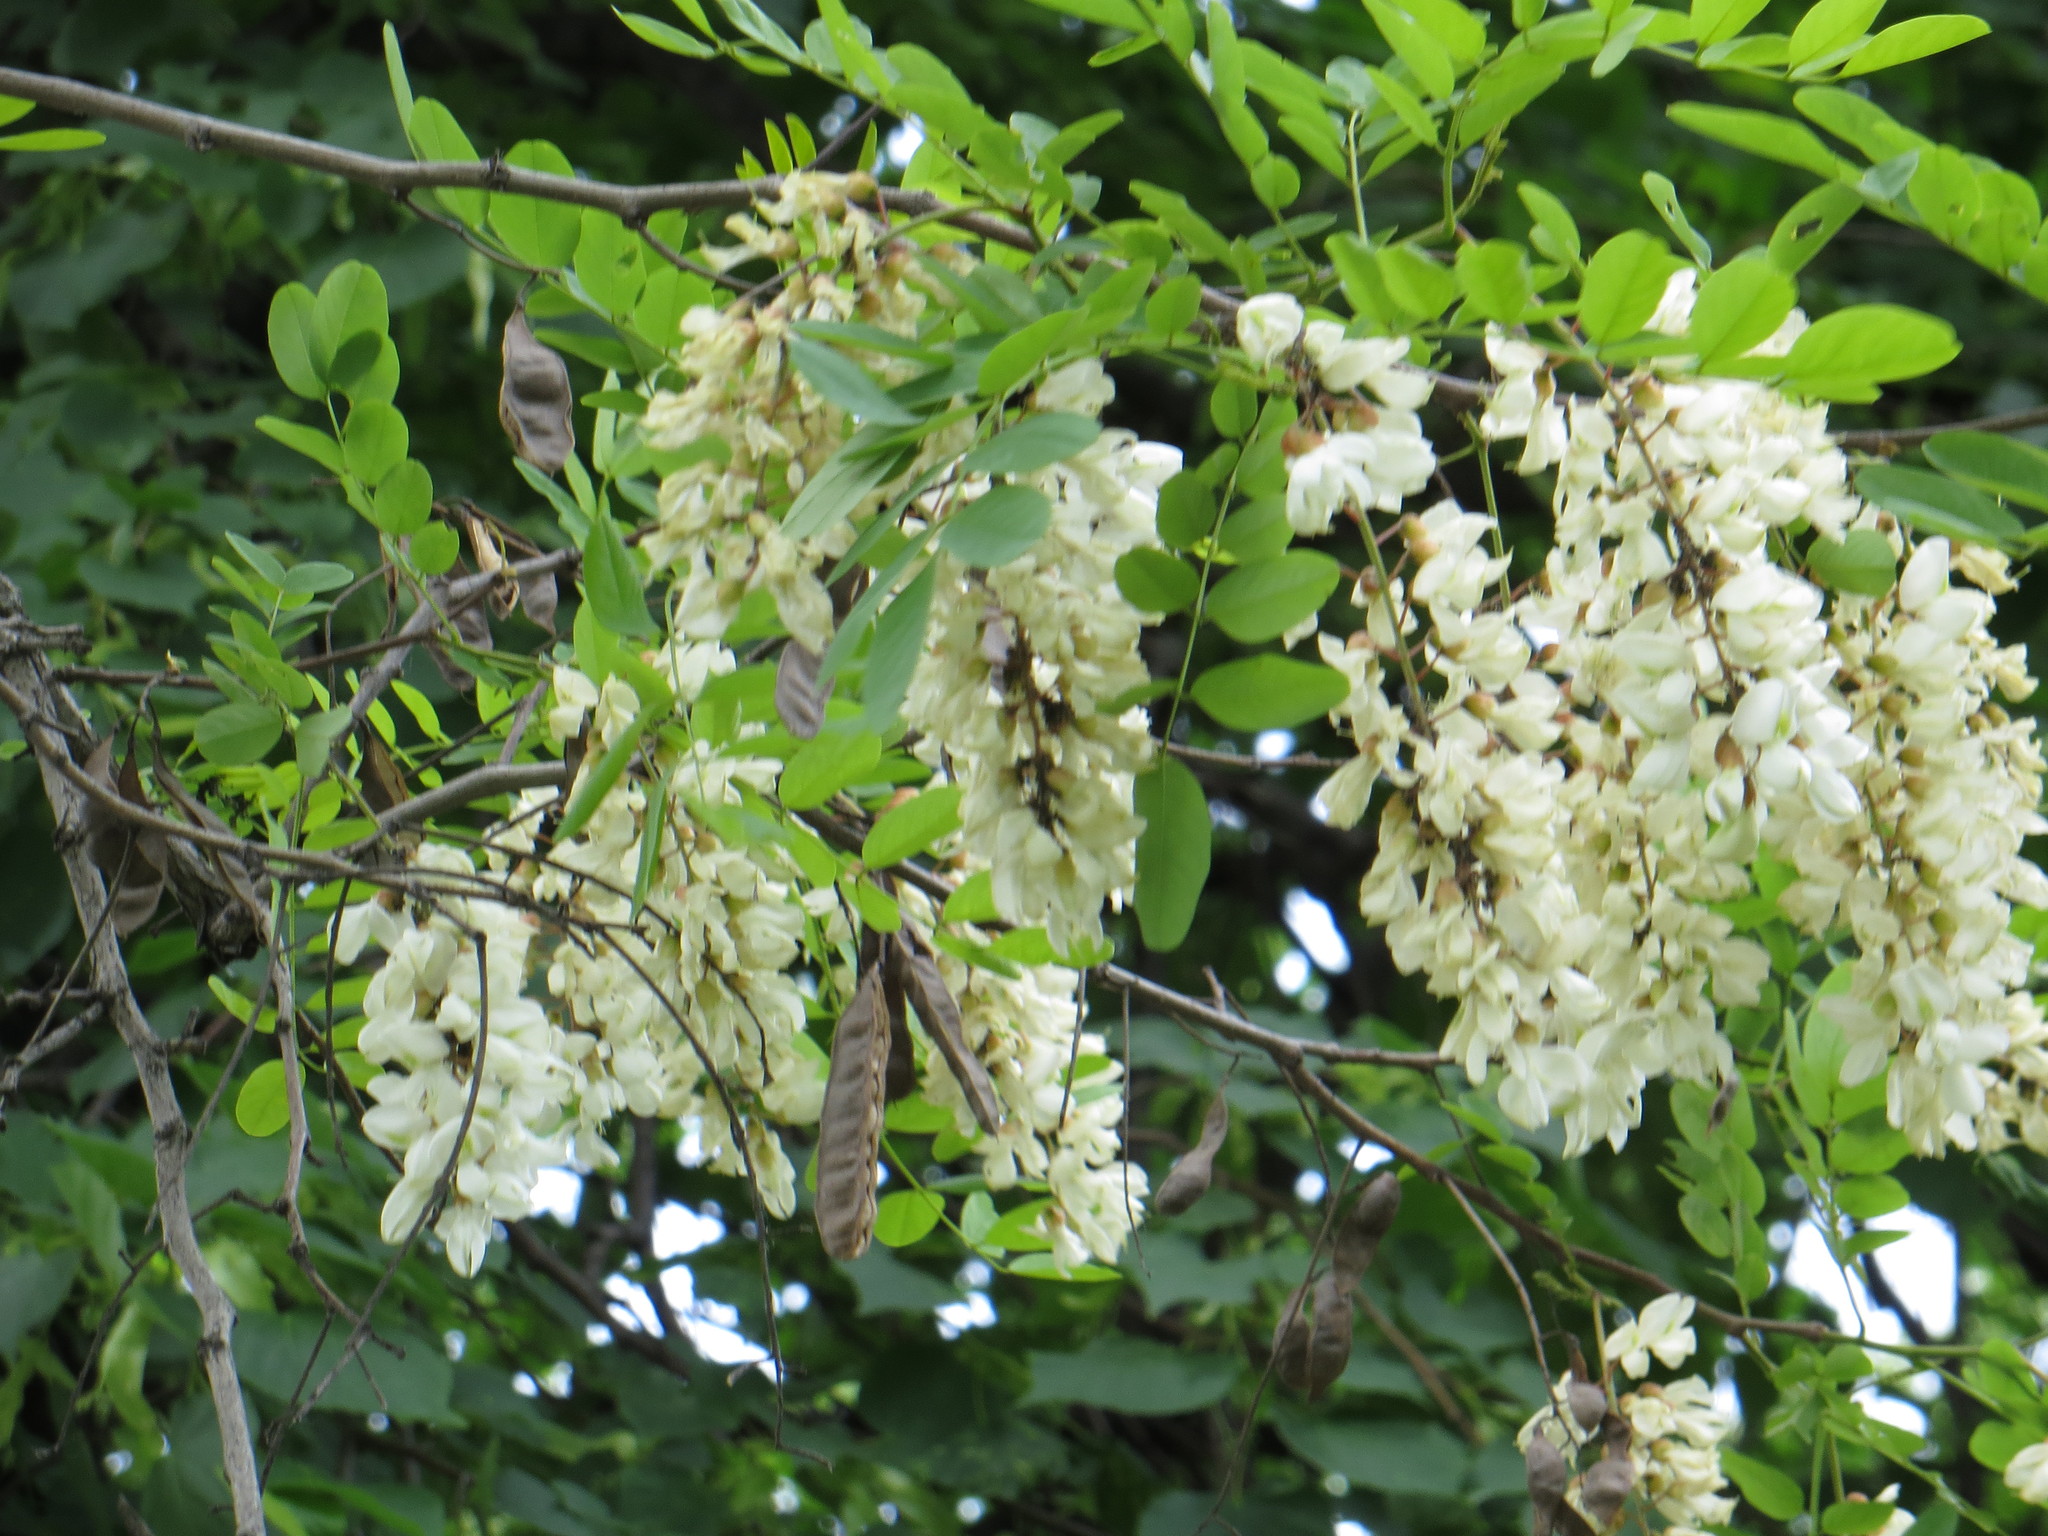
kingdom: Plantae
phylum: Tracheophyta
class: Magnoliopsida
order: Fabales
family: Fabaceae
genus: Robinia
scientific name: Robinia pseudoacacia
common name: Black locust
